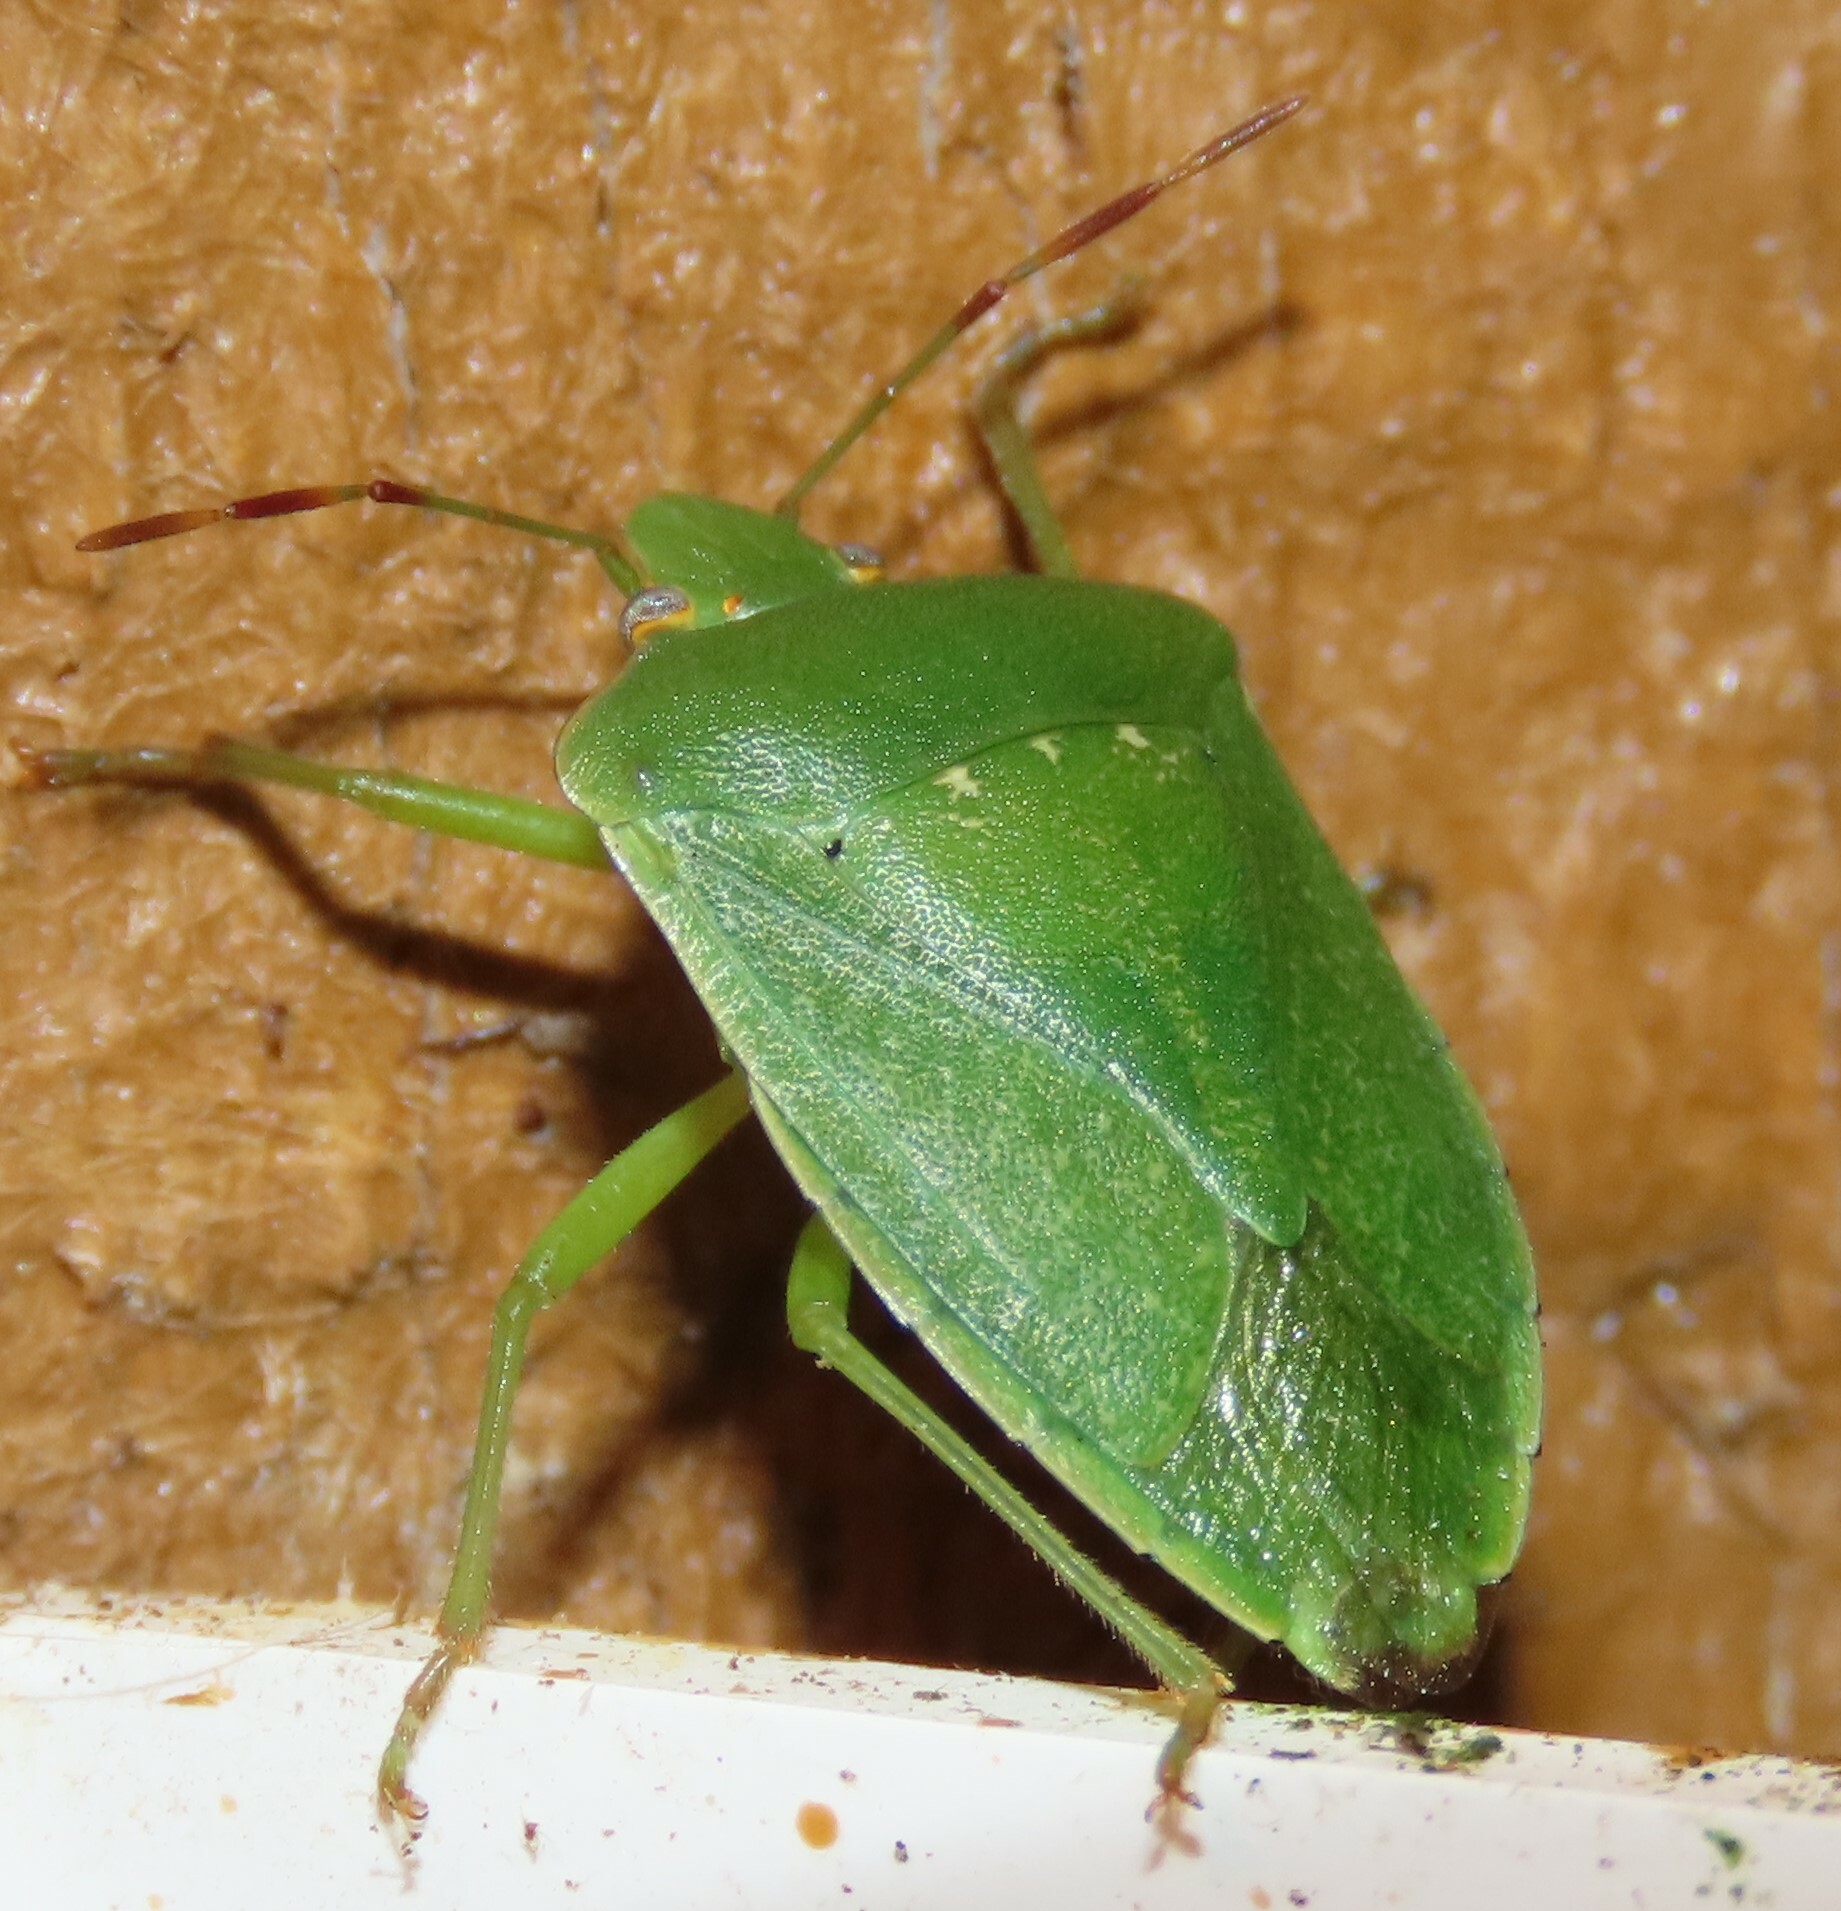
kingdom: Animalia
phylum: Arthropoda
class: Insecta
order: Hemiptera
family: Pentatomidae
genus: Nezara
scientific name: Nezara viridula
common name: Southern green stink bug
